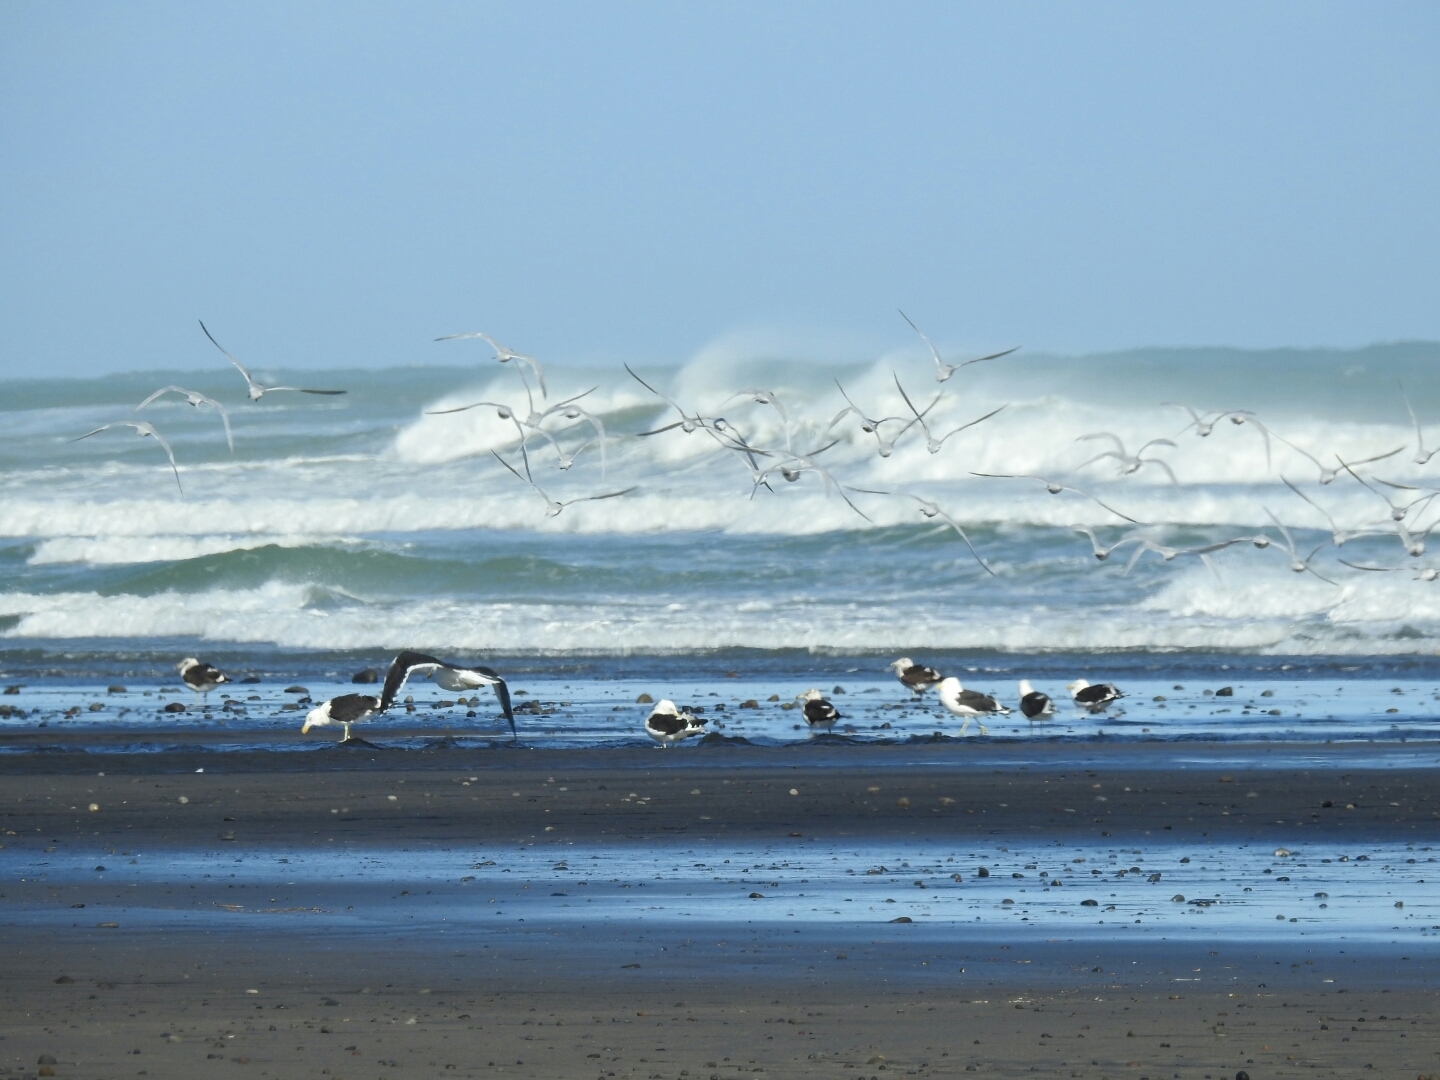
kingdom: Animalia
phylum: Chordata
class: Aves
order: Charadriiformes
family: Laridae
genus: Sterna
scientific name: Sterna striata
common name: White-fronted tern
